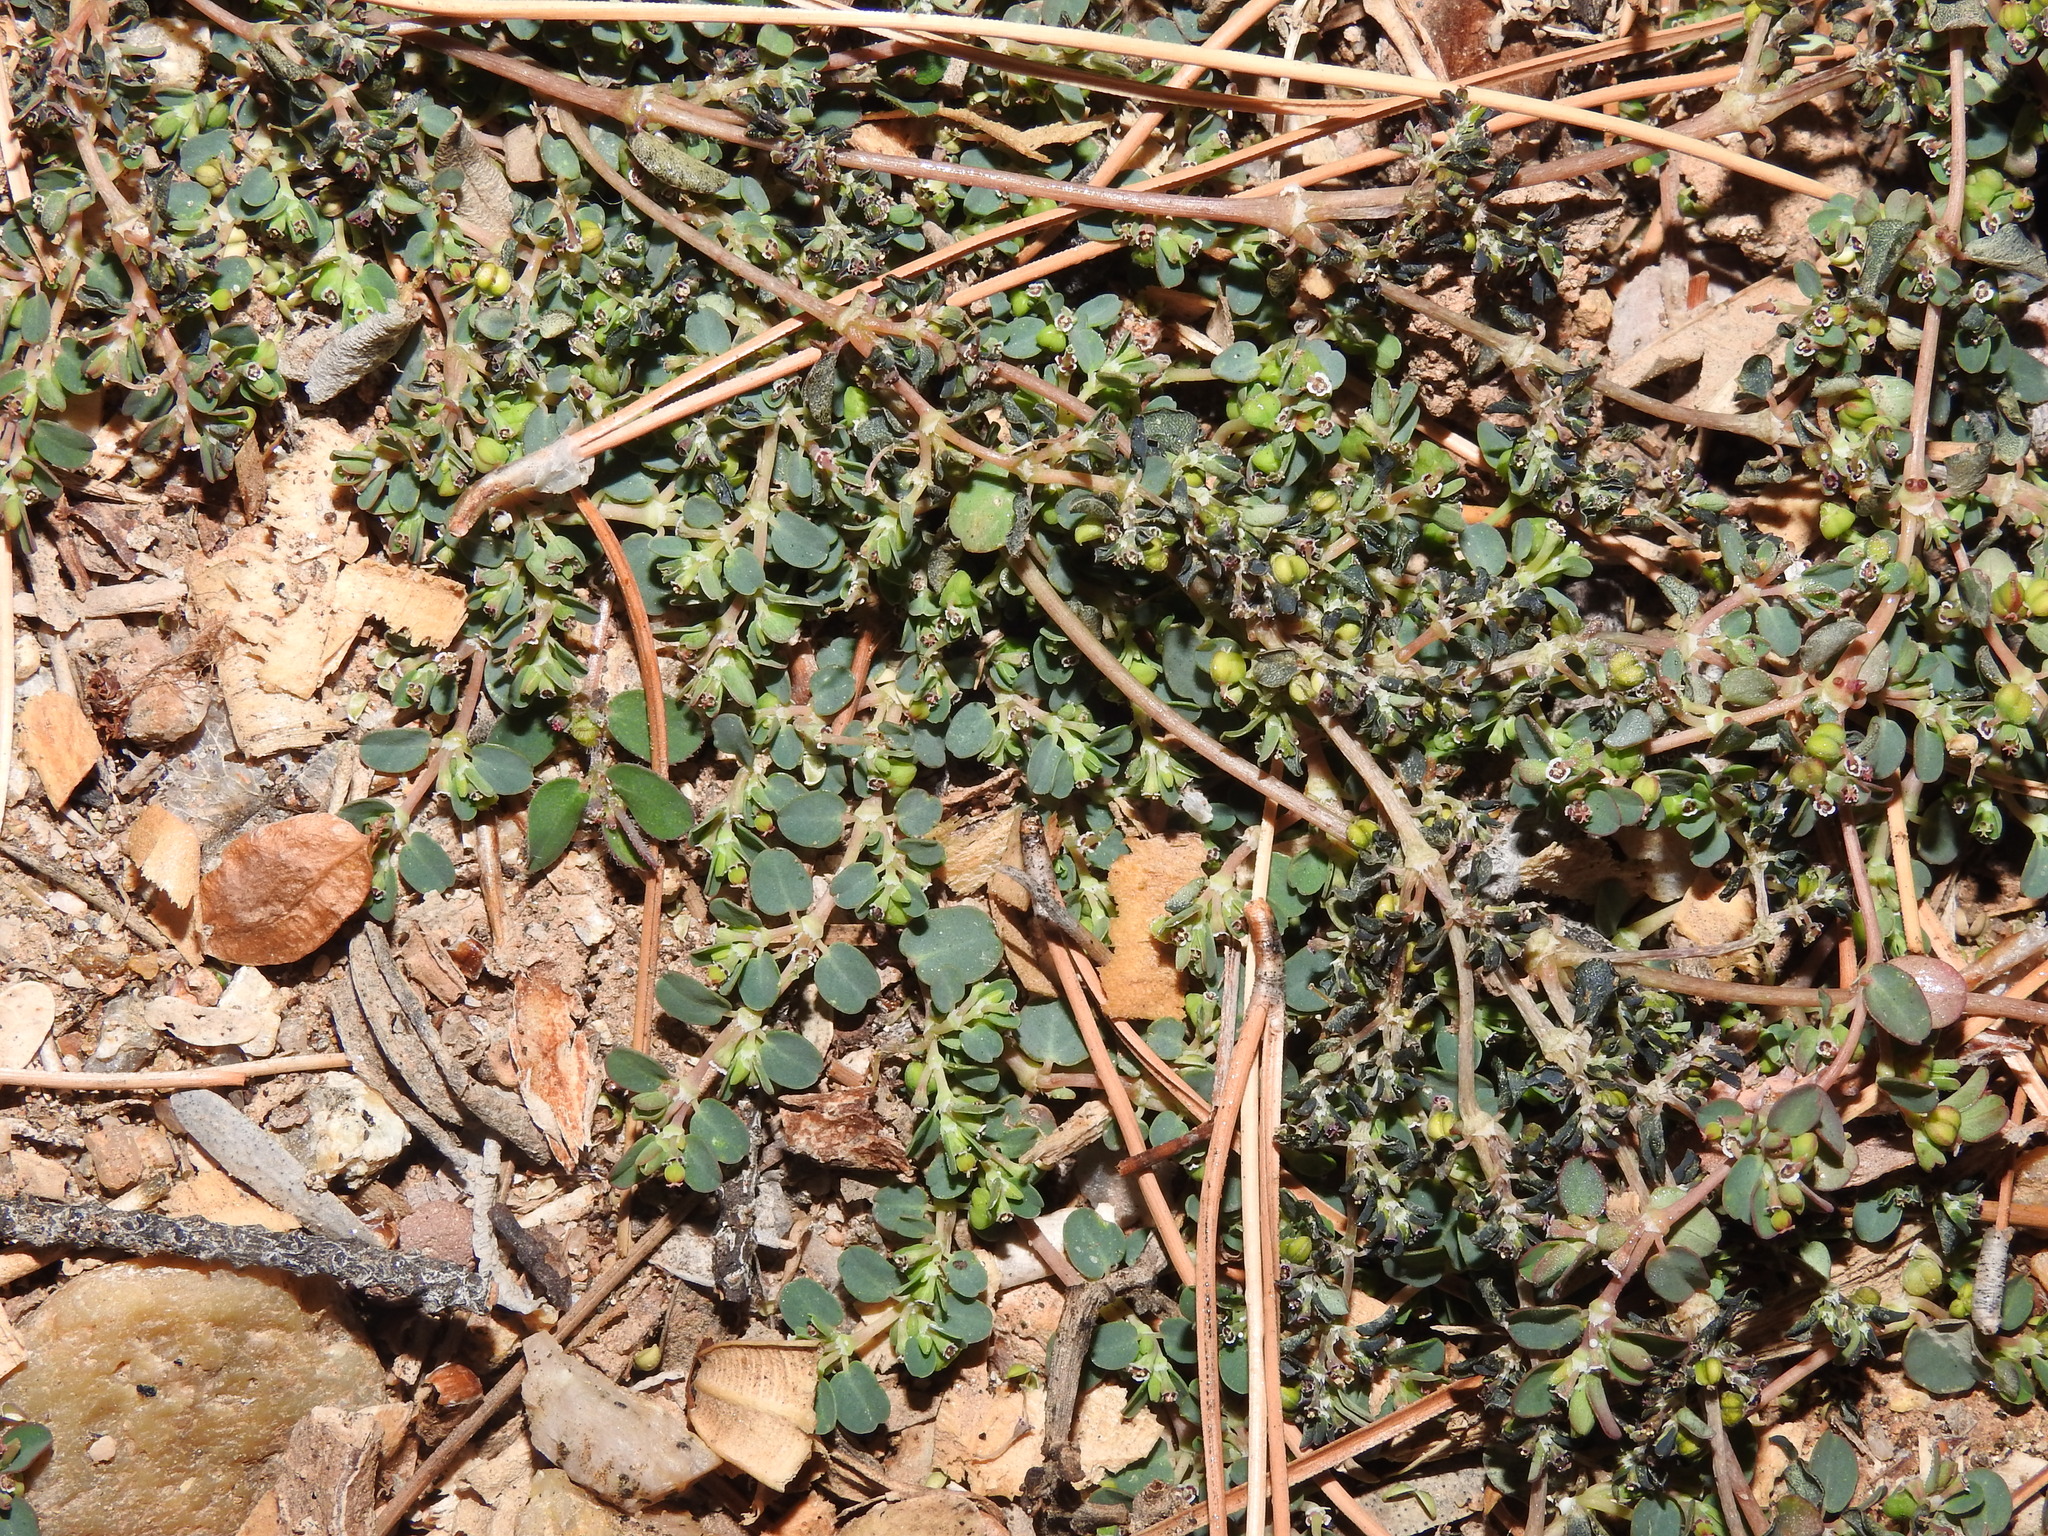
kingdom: Plantae
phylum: Tracheophyta
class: Magnoliopsida
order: Malpighiales
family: Euphorbiaceae
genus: Euphorbia
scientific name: Euphorbia serpens
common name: Matted sandmat
